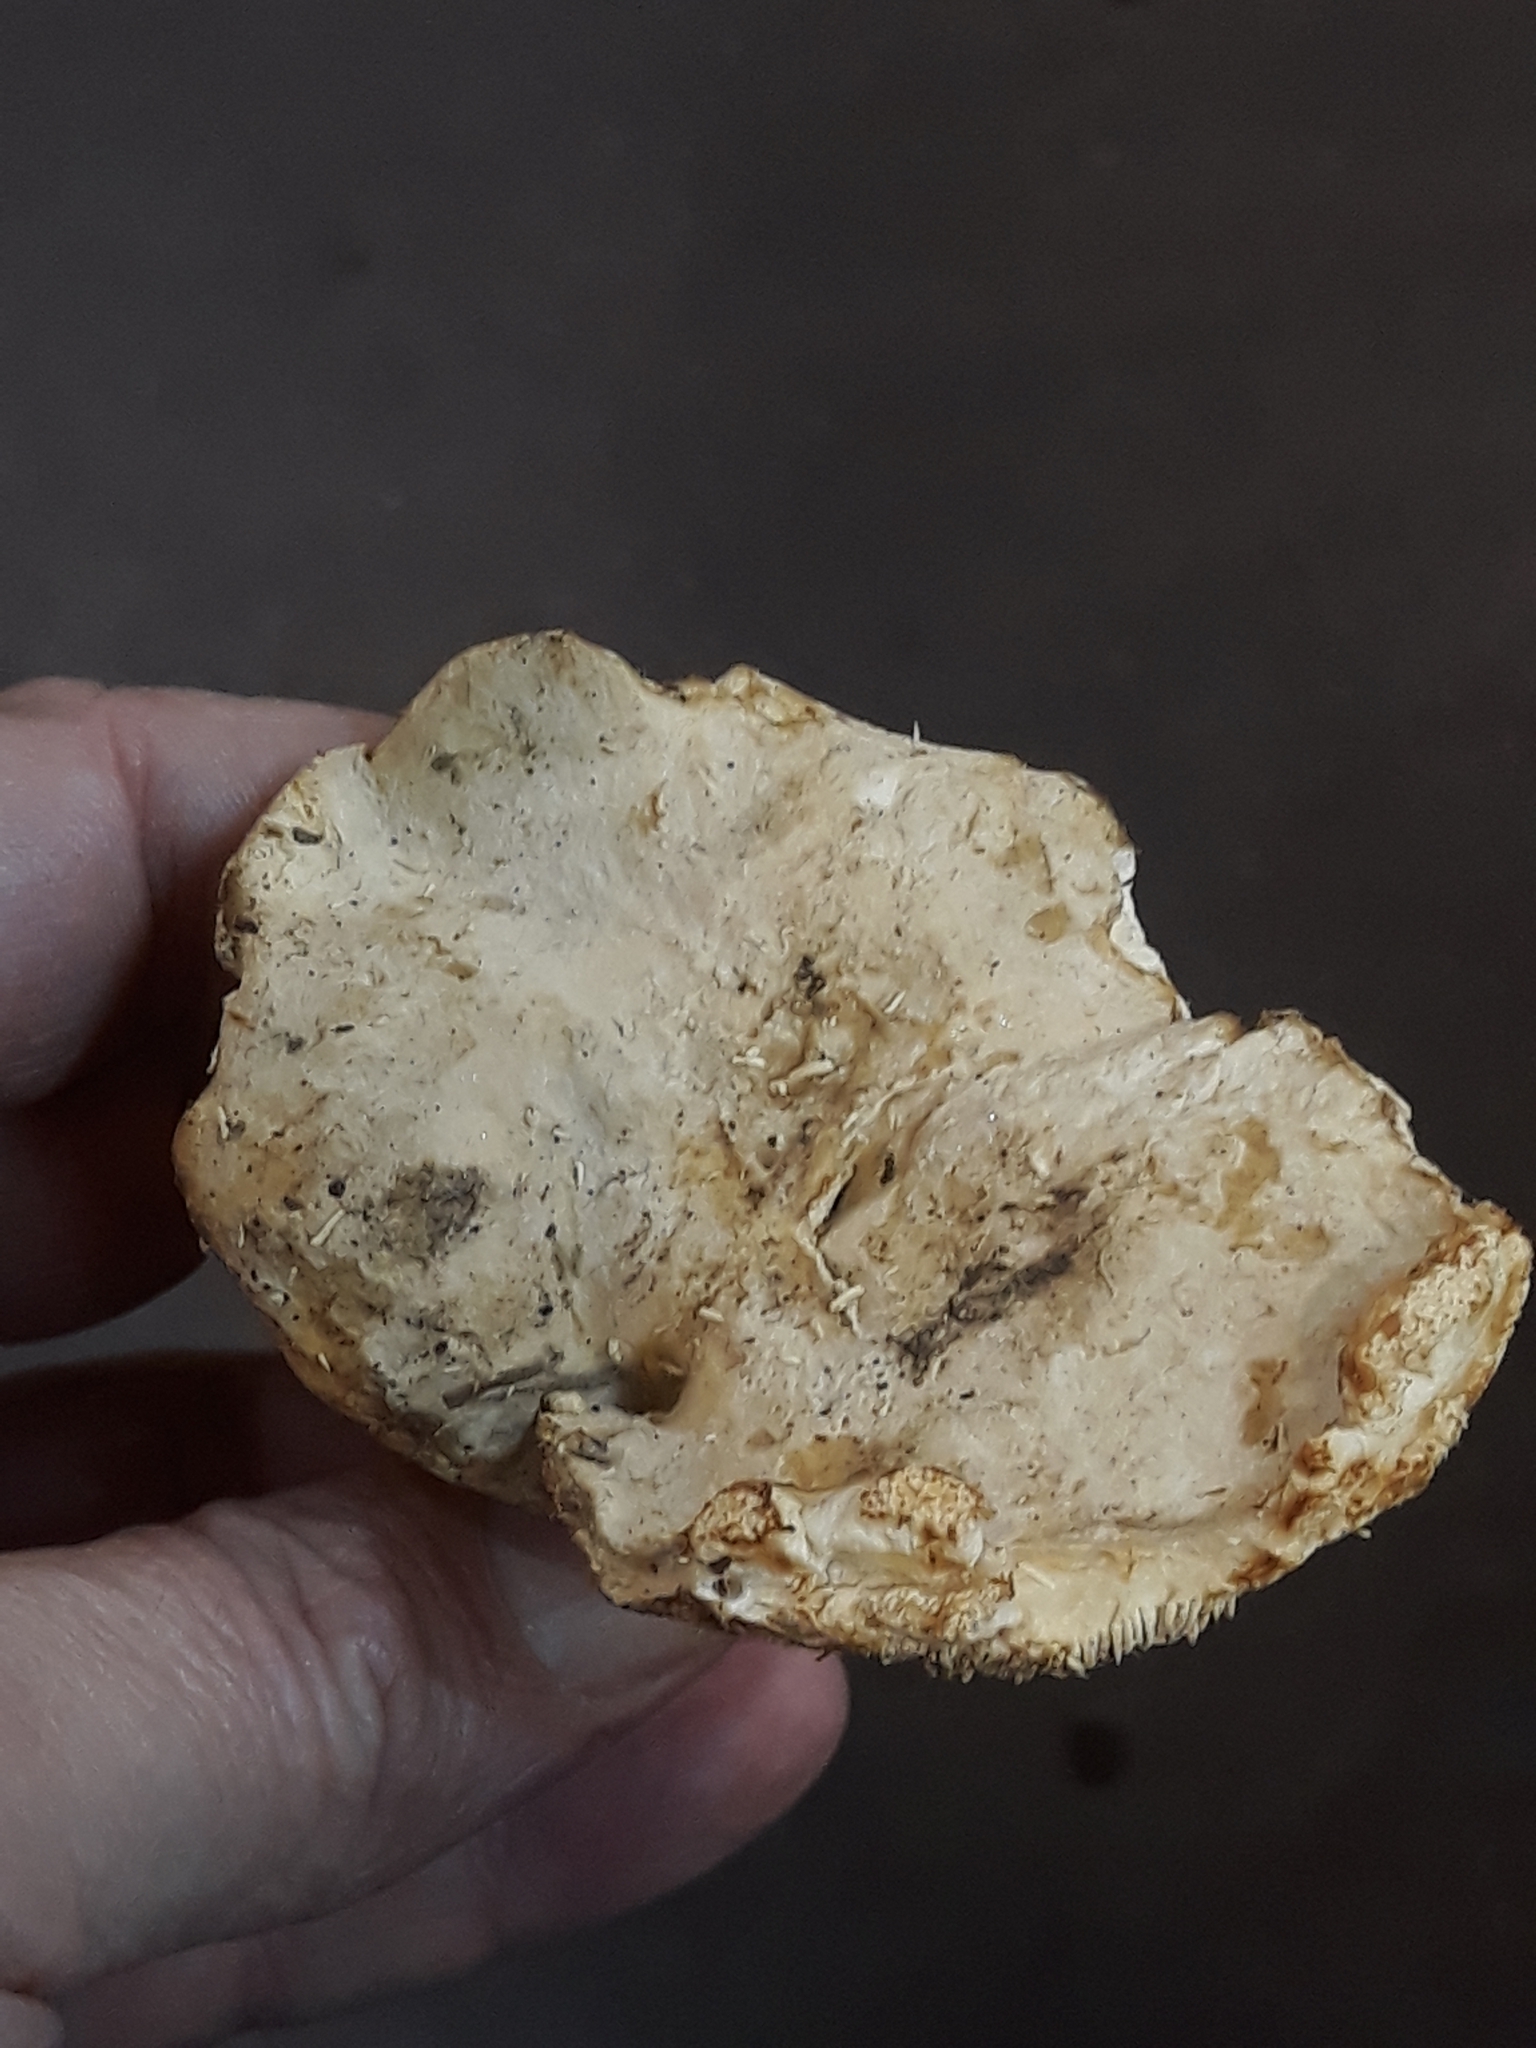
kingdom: Fungi
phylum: Basidiomycota
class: Agaricomycetes
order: Cantharellales
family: Hydnaceae
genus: Hydnum
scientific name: Hydnum repandum
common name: Wood hedgehog
